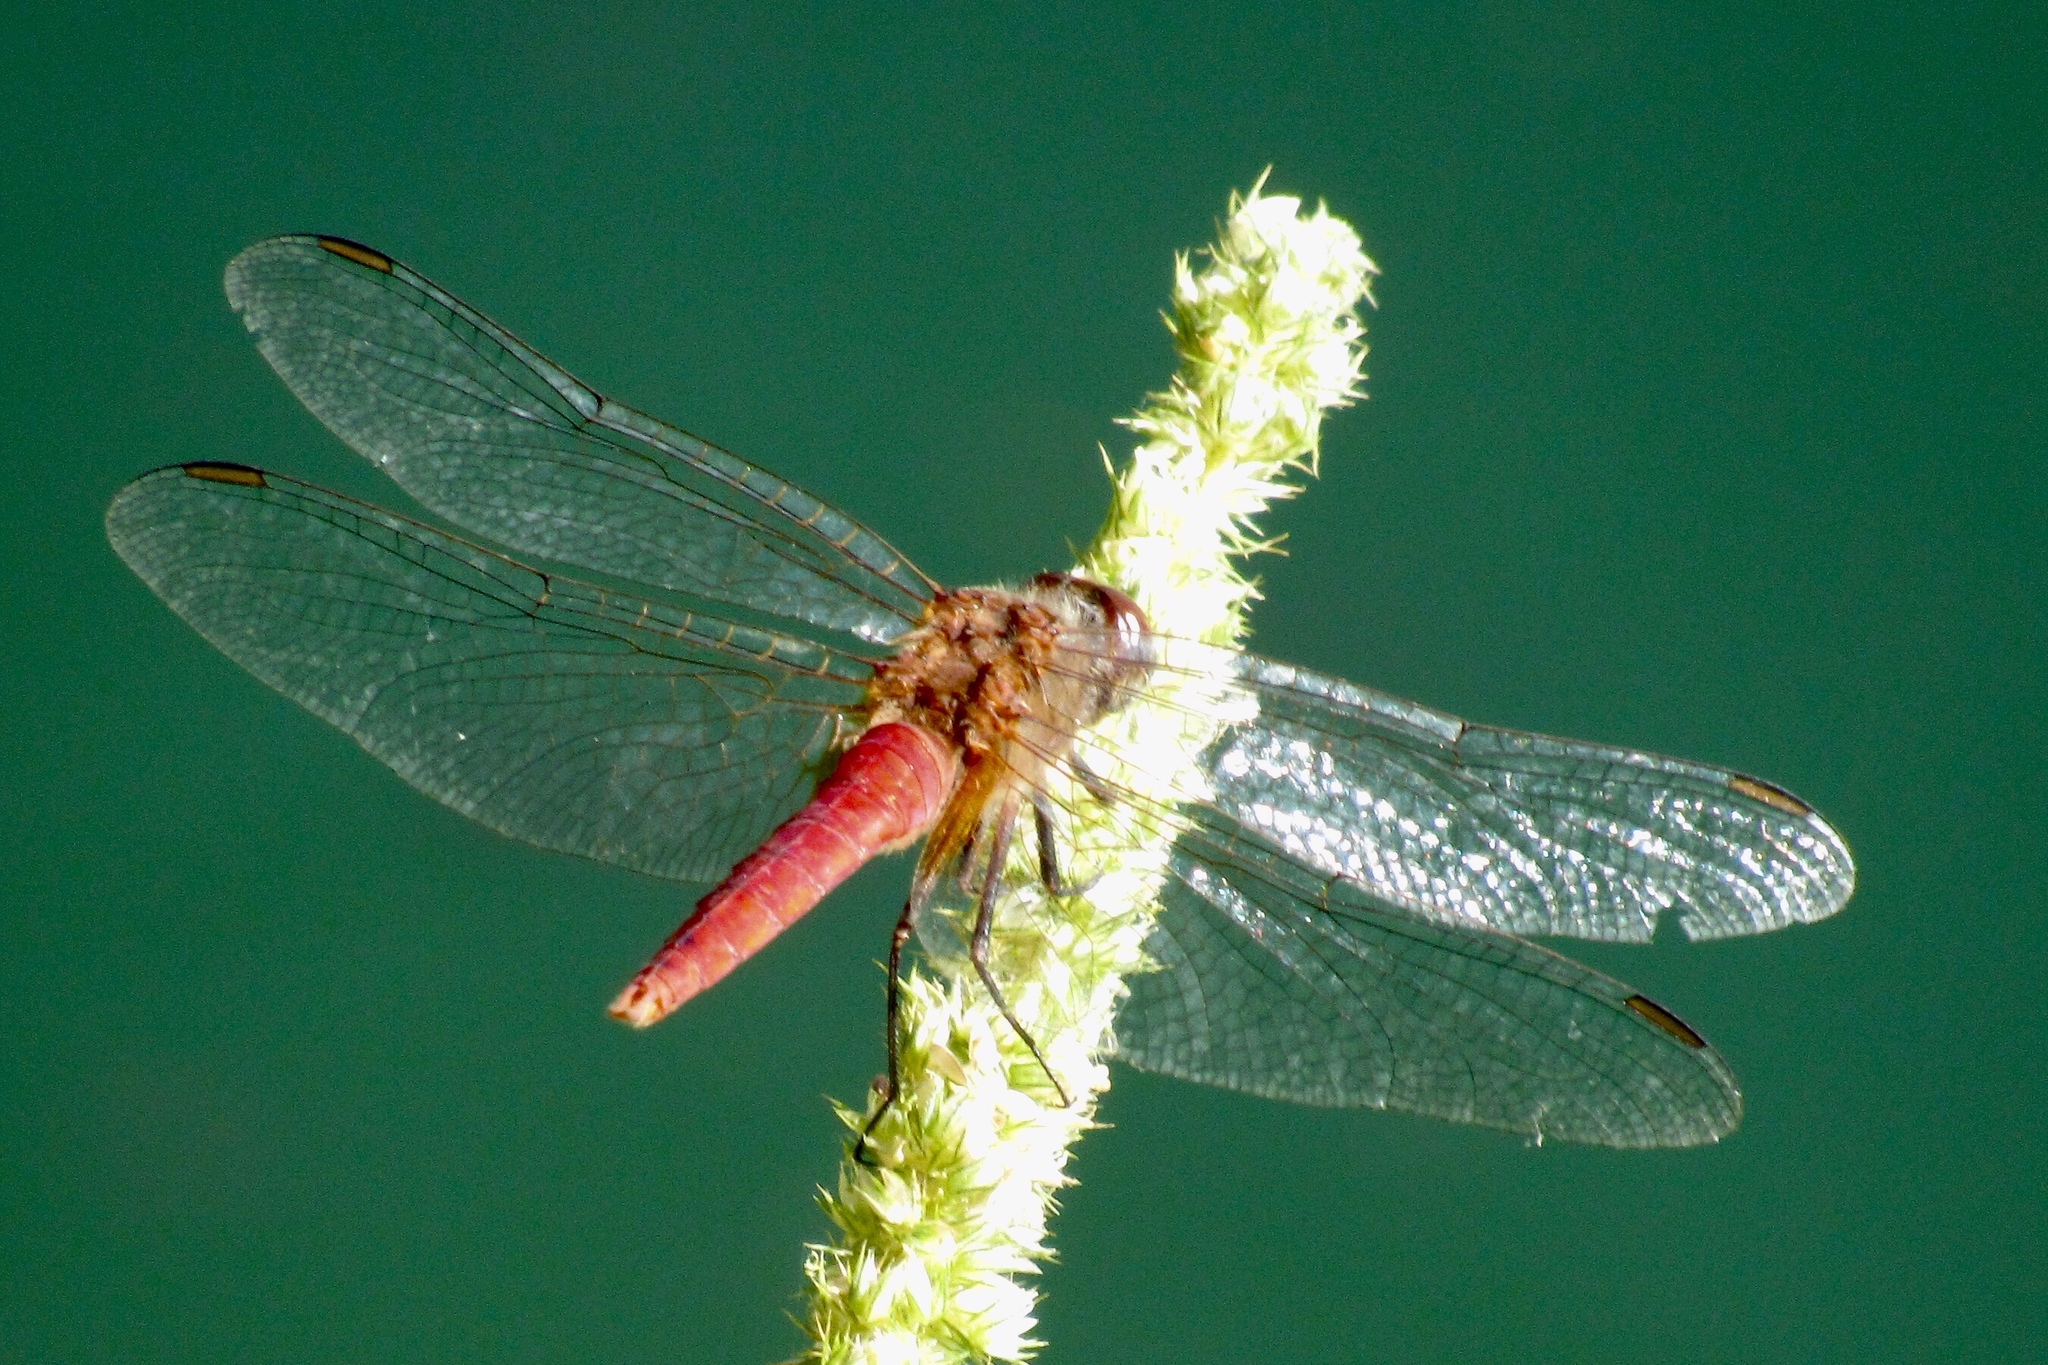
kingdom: Animalia
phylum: Arthropoda
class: Insecta
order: Odonata
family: Libellulidae
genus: Brachymesia
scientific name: Brachymesia furcata
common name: Red-taled pennant
